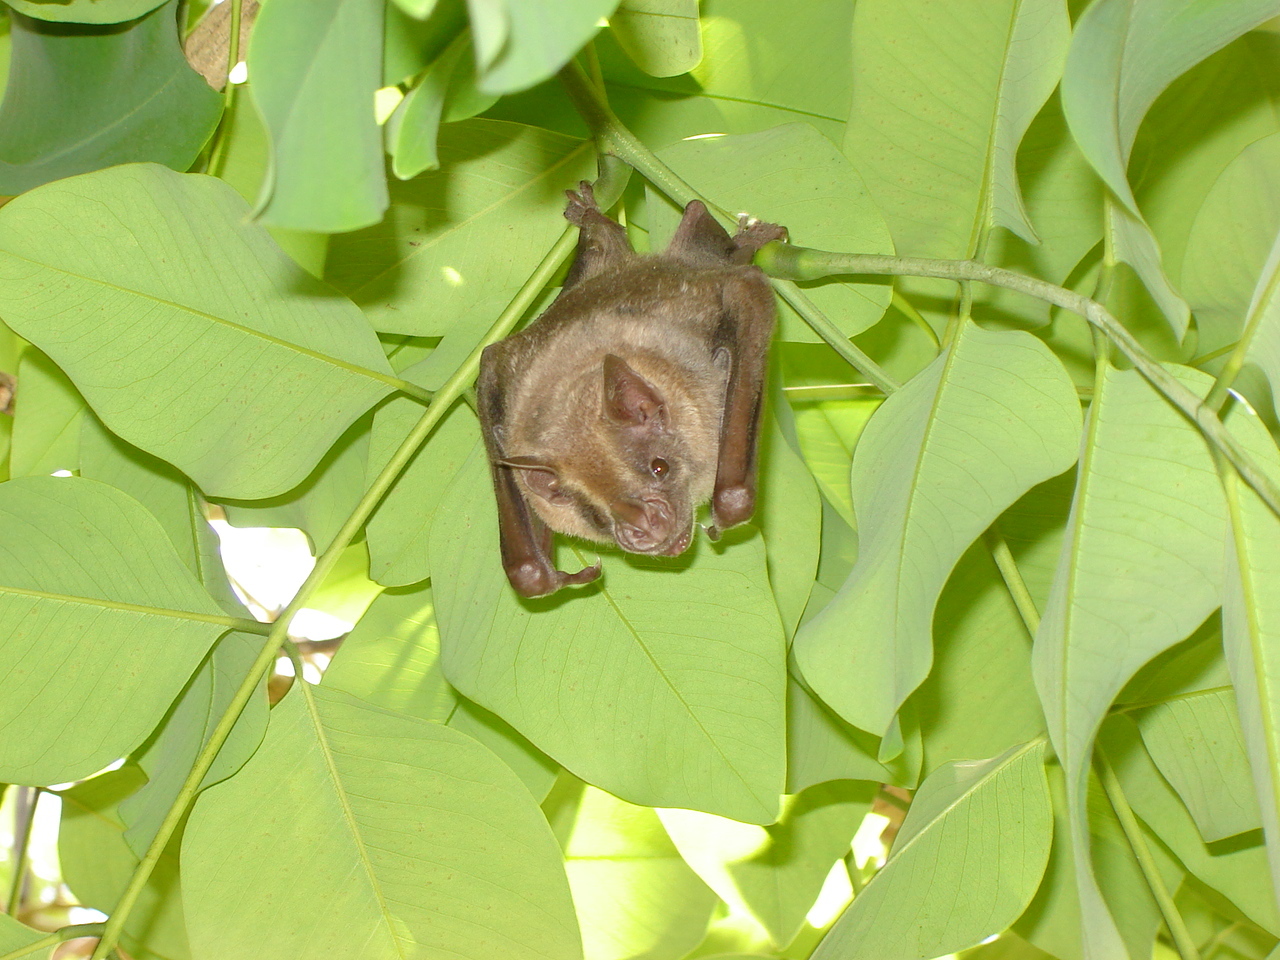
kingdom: Animalia
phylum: Chordata
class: Mammalia
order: Chiroptera
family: Phyllostomidae
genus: Artibeus
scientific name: Artibeus jamaicensis
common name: Jamaican fruit-eating bat
